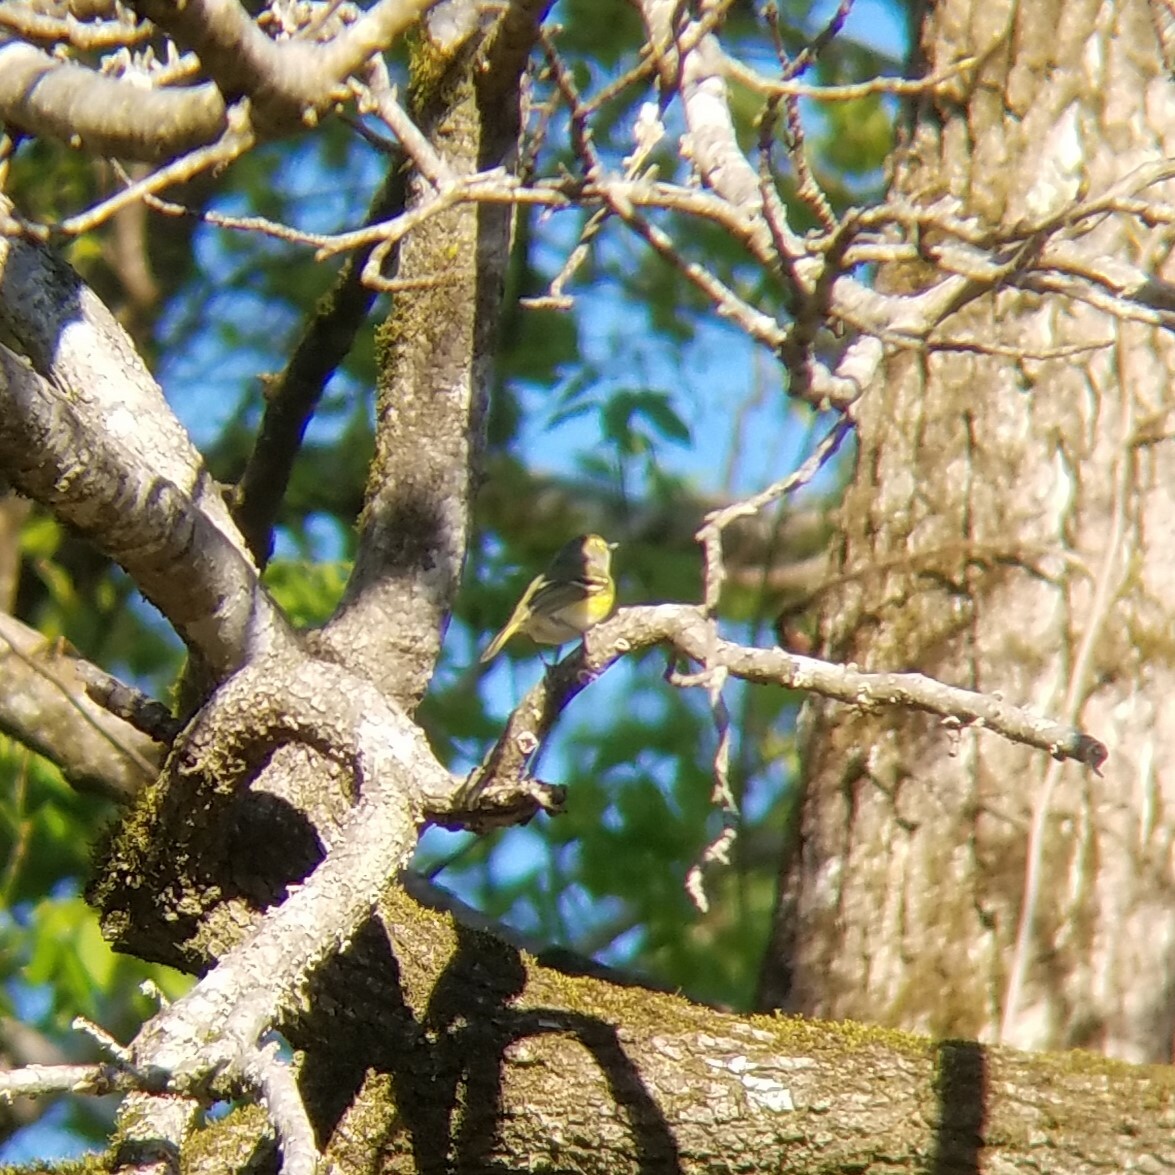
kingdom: Animalia
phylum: Chordata
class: Aves
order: Passeriformes
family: Vireonidae
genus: Vireo
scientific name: Vireo griseus
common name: White-eyed vireo
